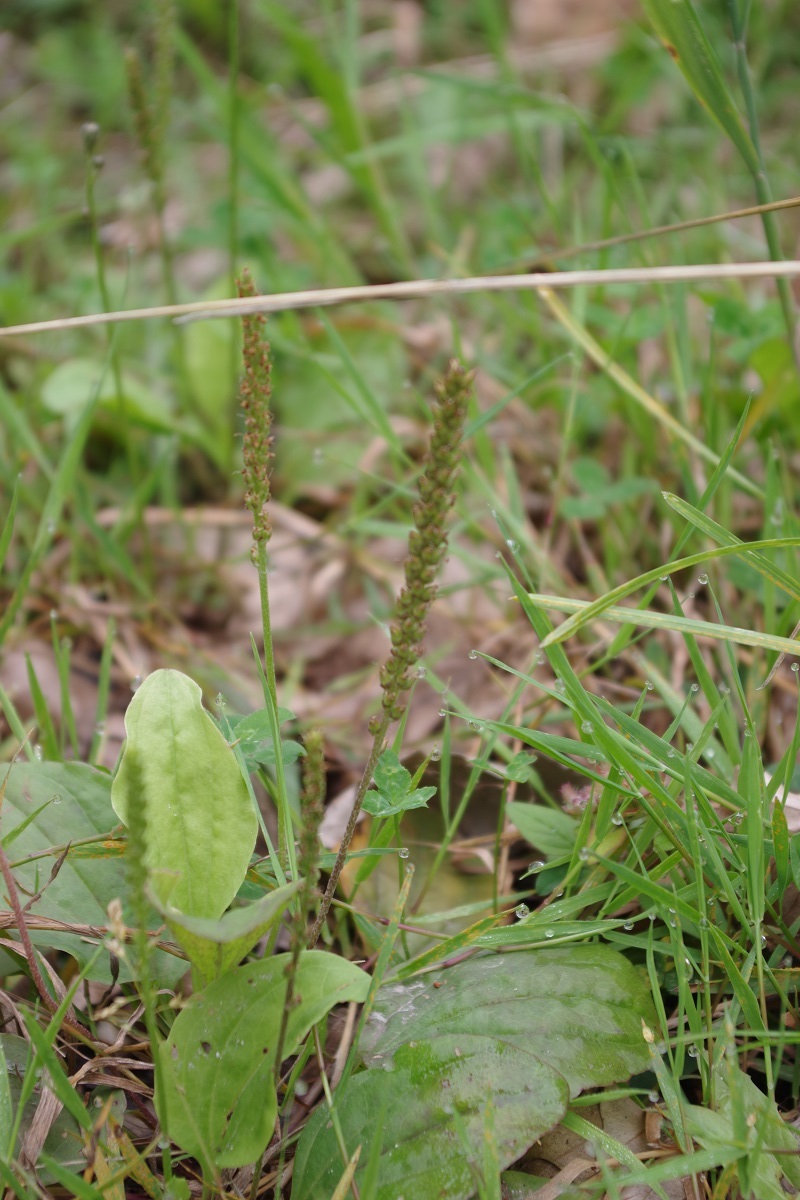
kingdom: Plantae
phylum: Tracheophyta
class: Magnoliopsida
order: Lamiales
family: Plantaginaceae
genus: Plantago
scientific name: Plantago major
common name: Common plantain
